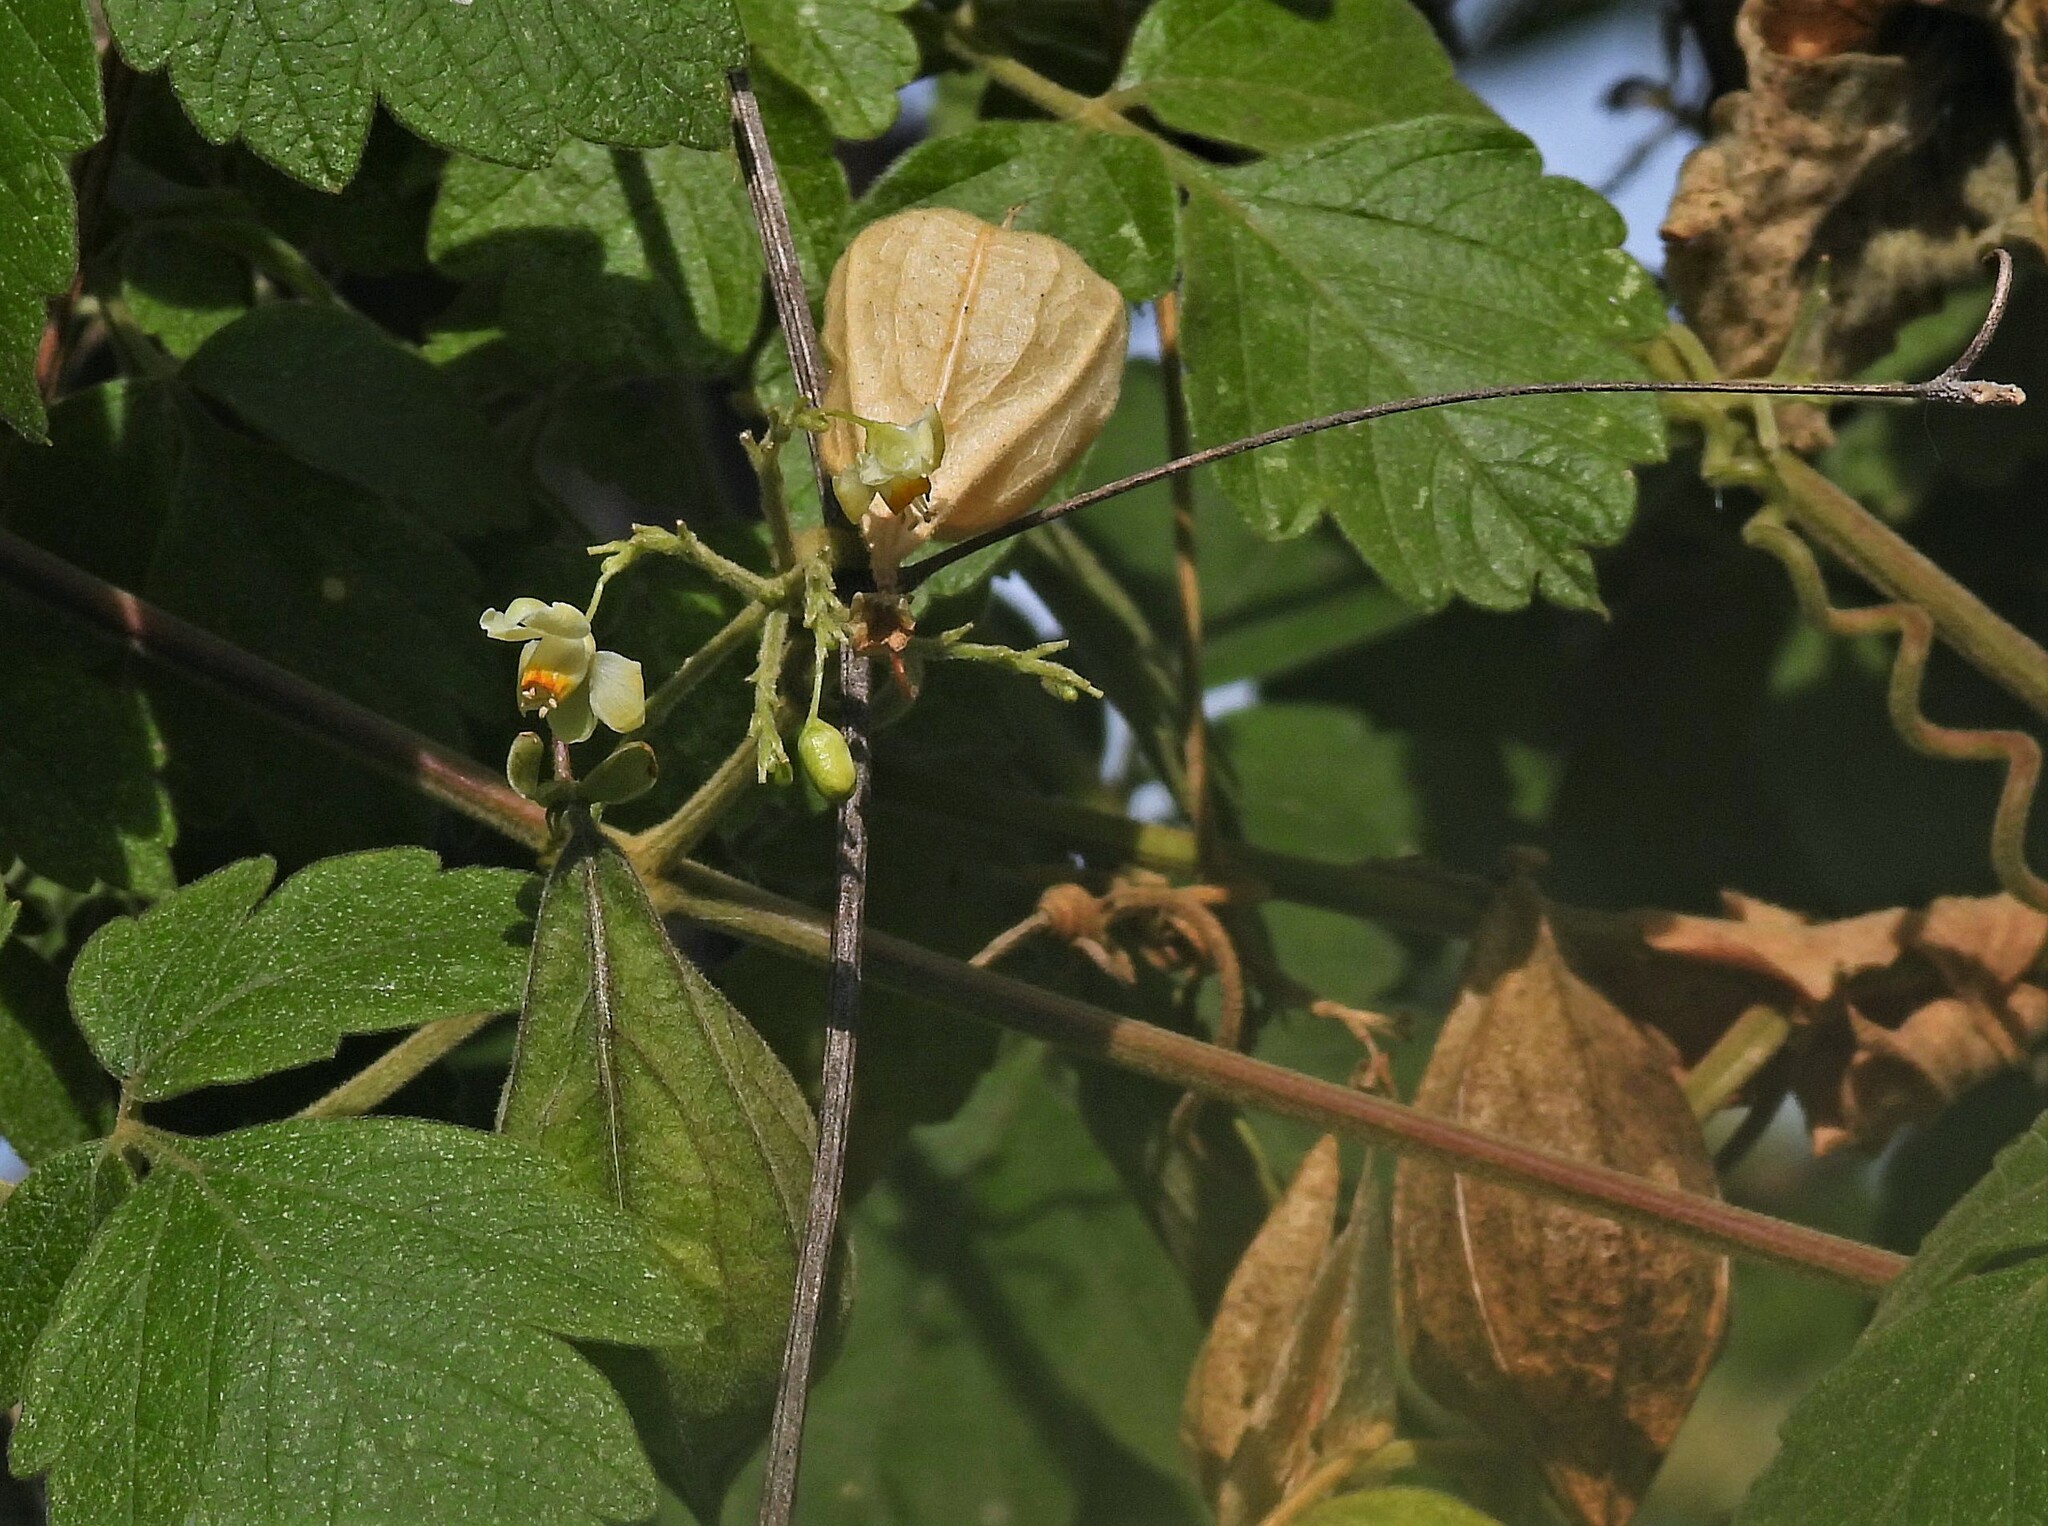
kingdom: Plantae
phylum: Tracheophyta
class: Magnoliopsida
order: Sapindales
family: Sapindaceae
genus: Cardiospermum
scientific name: Cardiospermum grandiflorum
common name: Balloon vine
